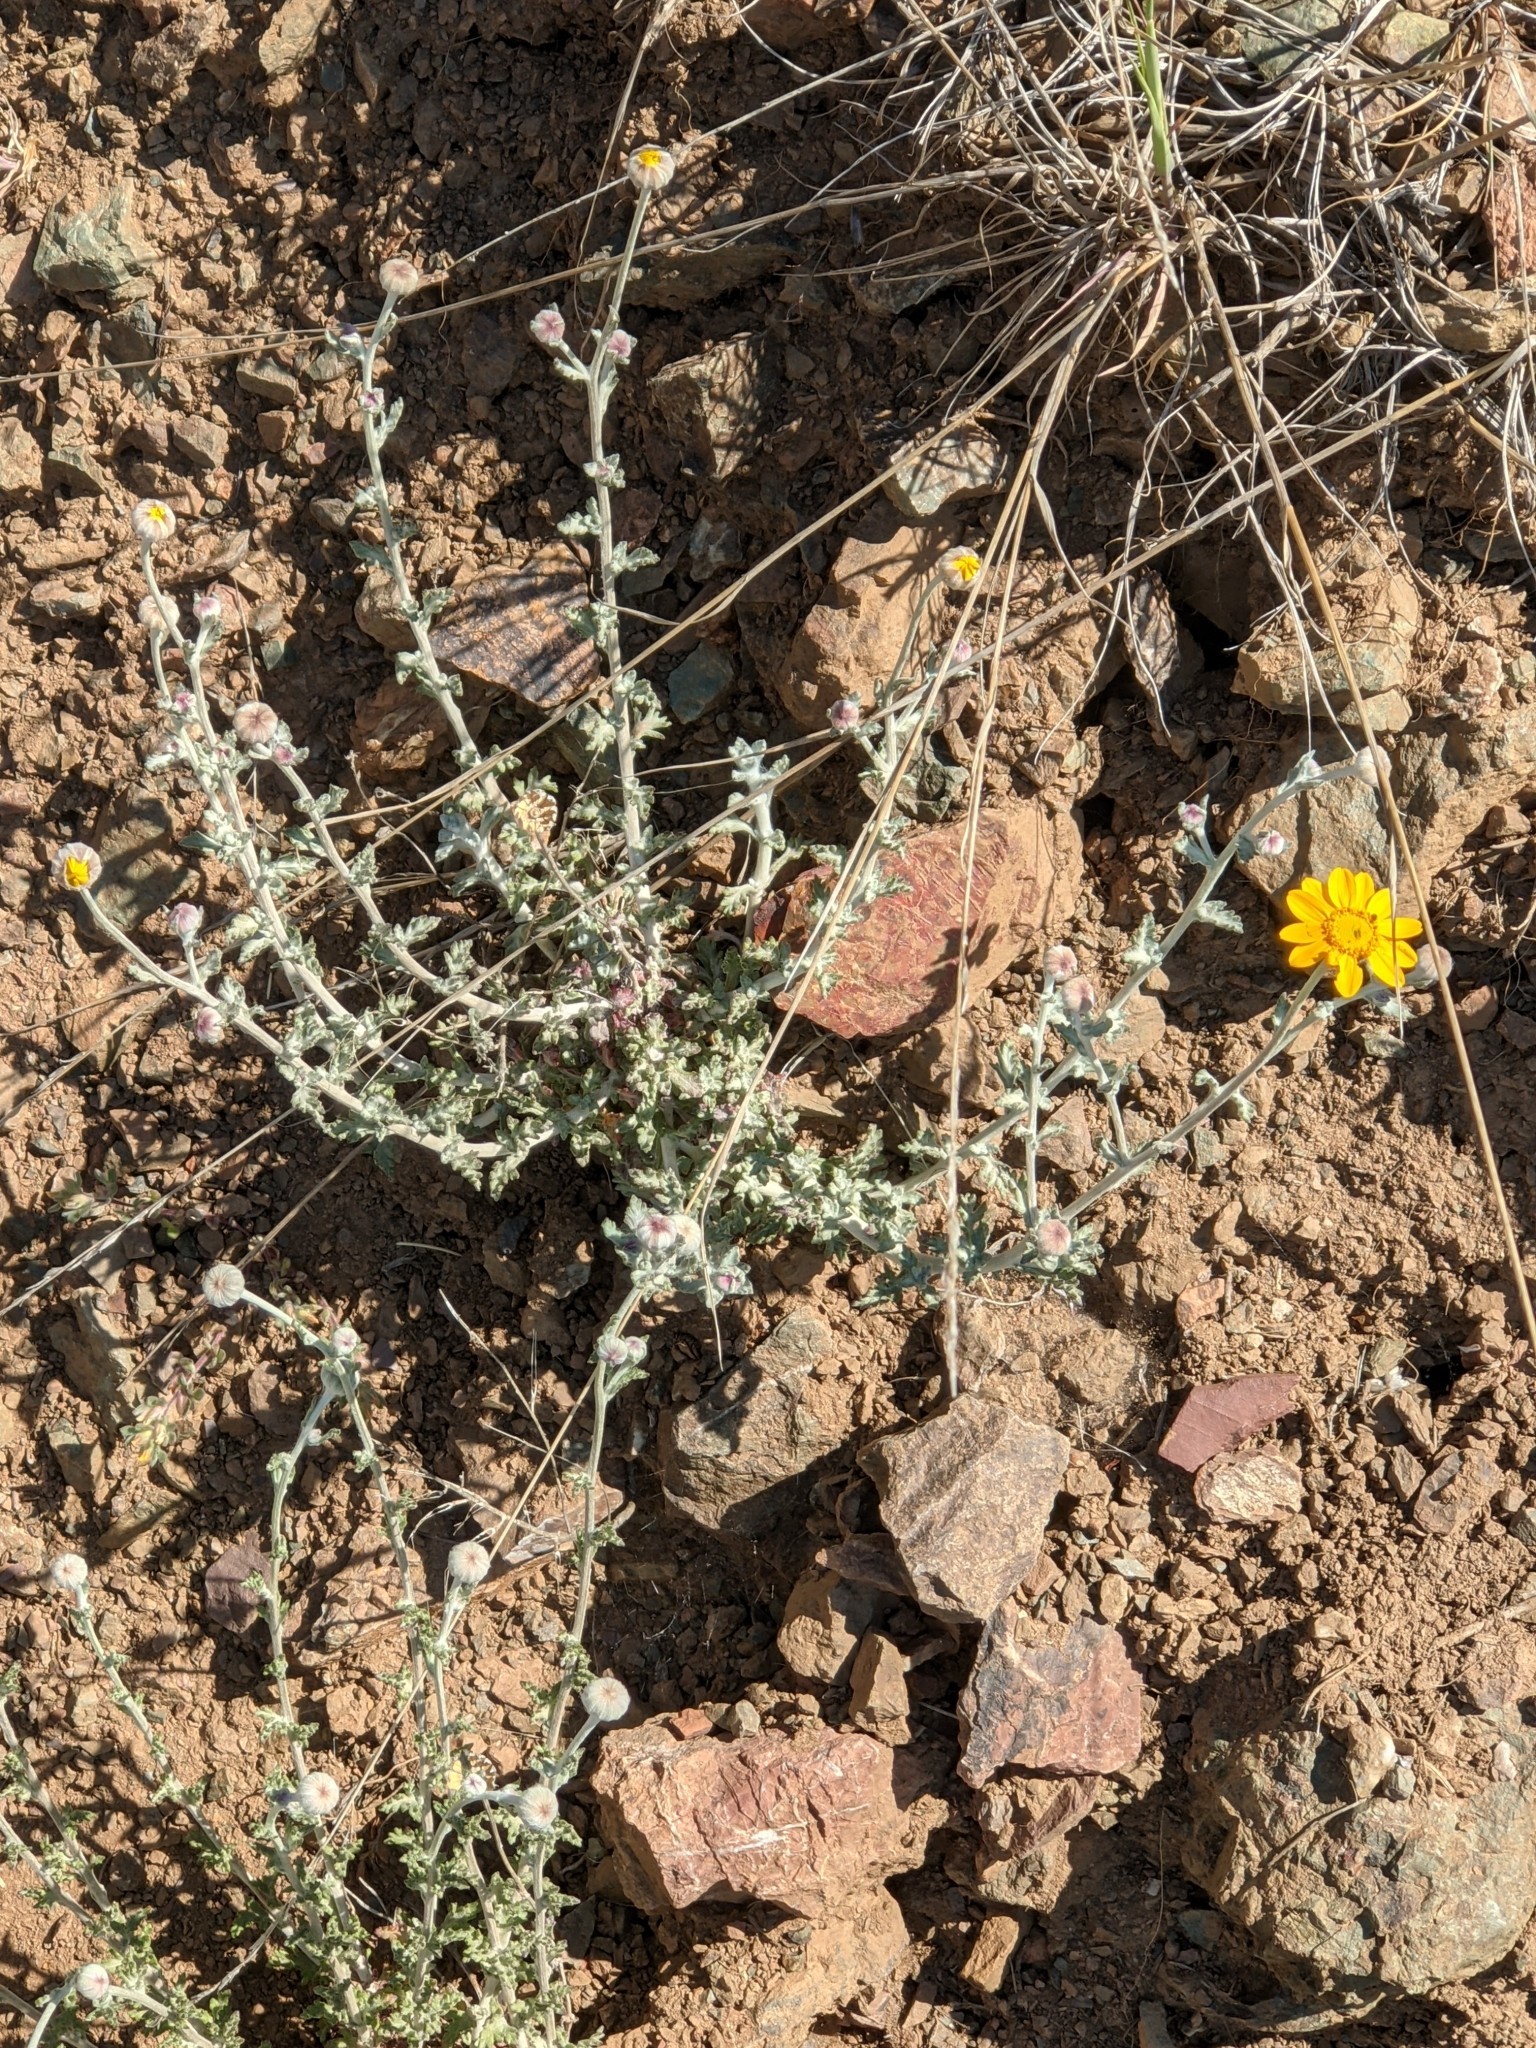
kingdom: Plantae
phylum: Tracheophyta
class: Magnoliopsida
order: Asterales
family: Asteraceae
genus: Eriophyllum
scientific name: Eriophyllum lanatum
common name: Common woolly-sunflower
